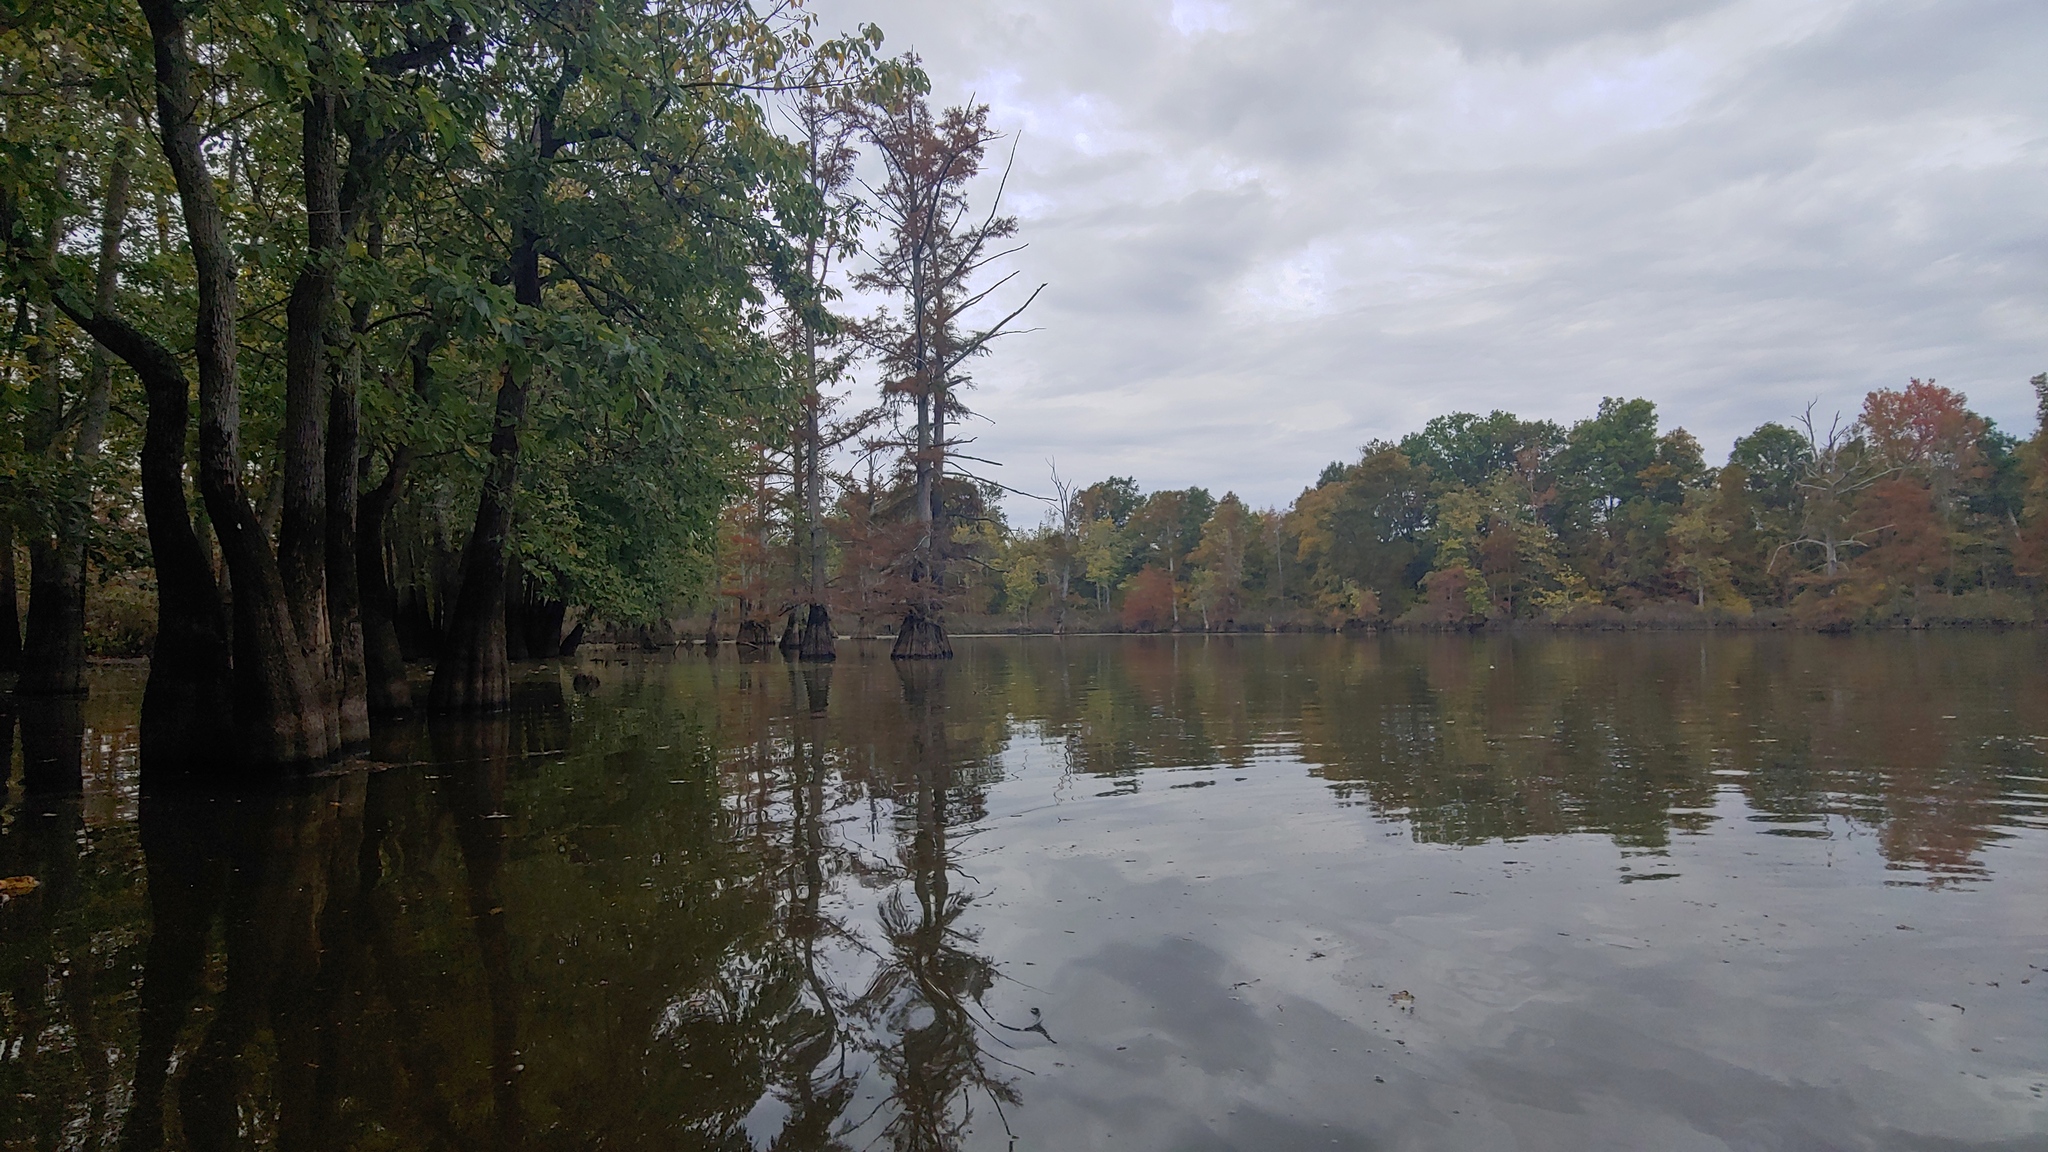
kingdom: Plantae
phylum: Tracheophyta
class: Pinopsida
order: Pinales
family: Cupressaceae
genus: Taxodium
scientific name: Taxodium distichum
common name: Bald cypress
